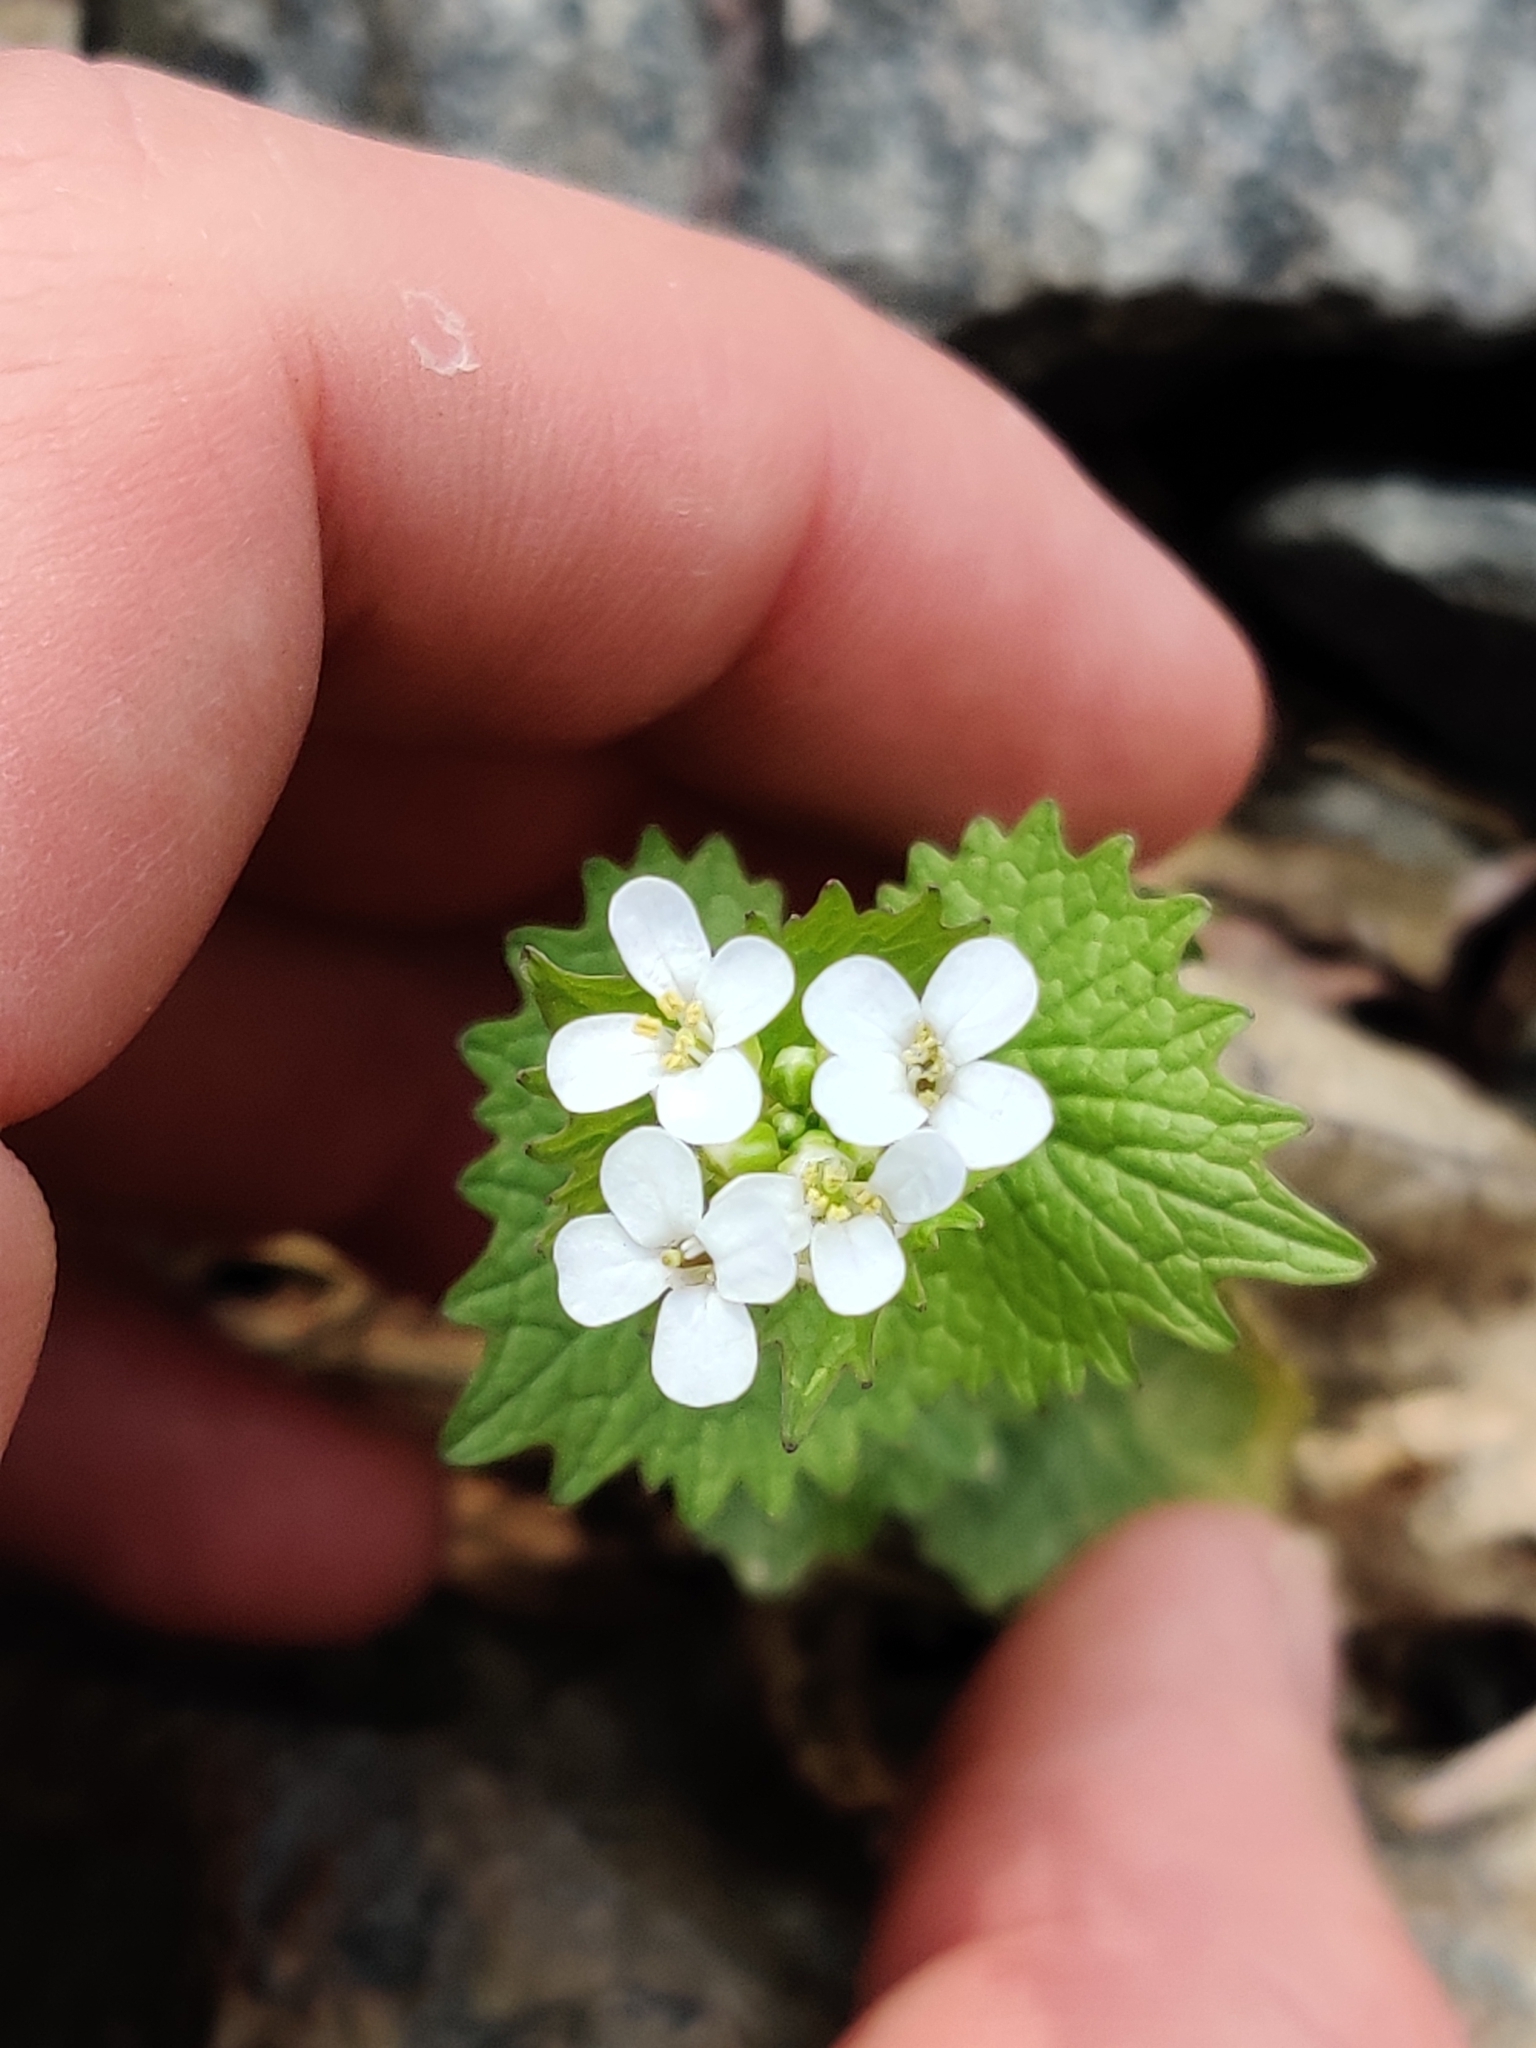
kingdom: Plantae
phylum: Tracheophyta
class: Magnoliopsida
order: Brassicales
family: Brassicaceae
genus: Alliaria
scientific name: Alliaria petiolata
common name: Garlic mustard
